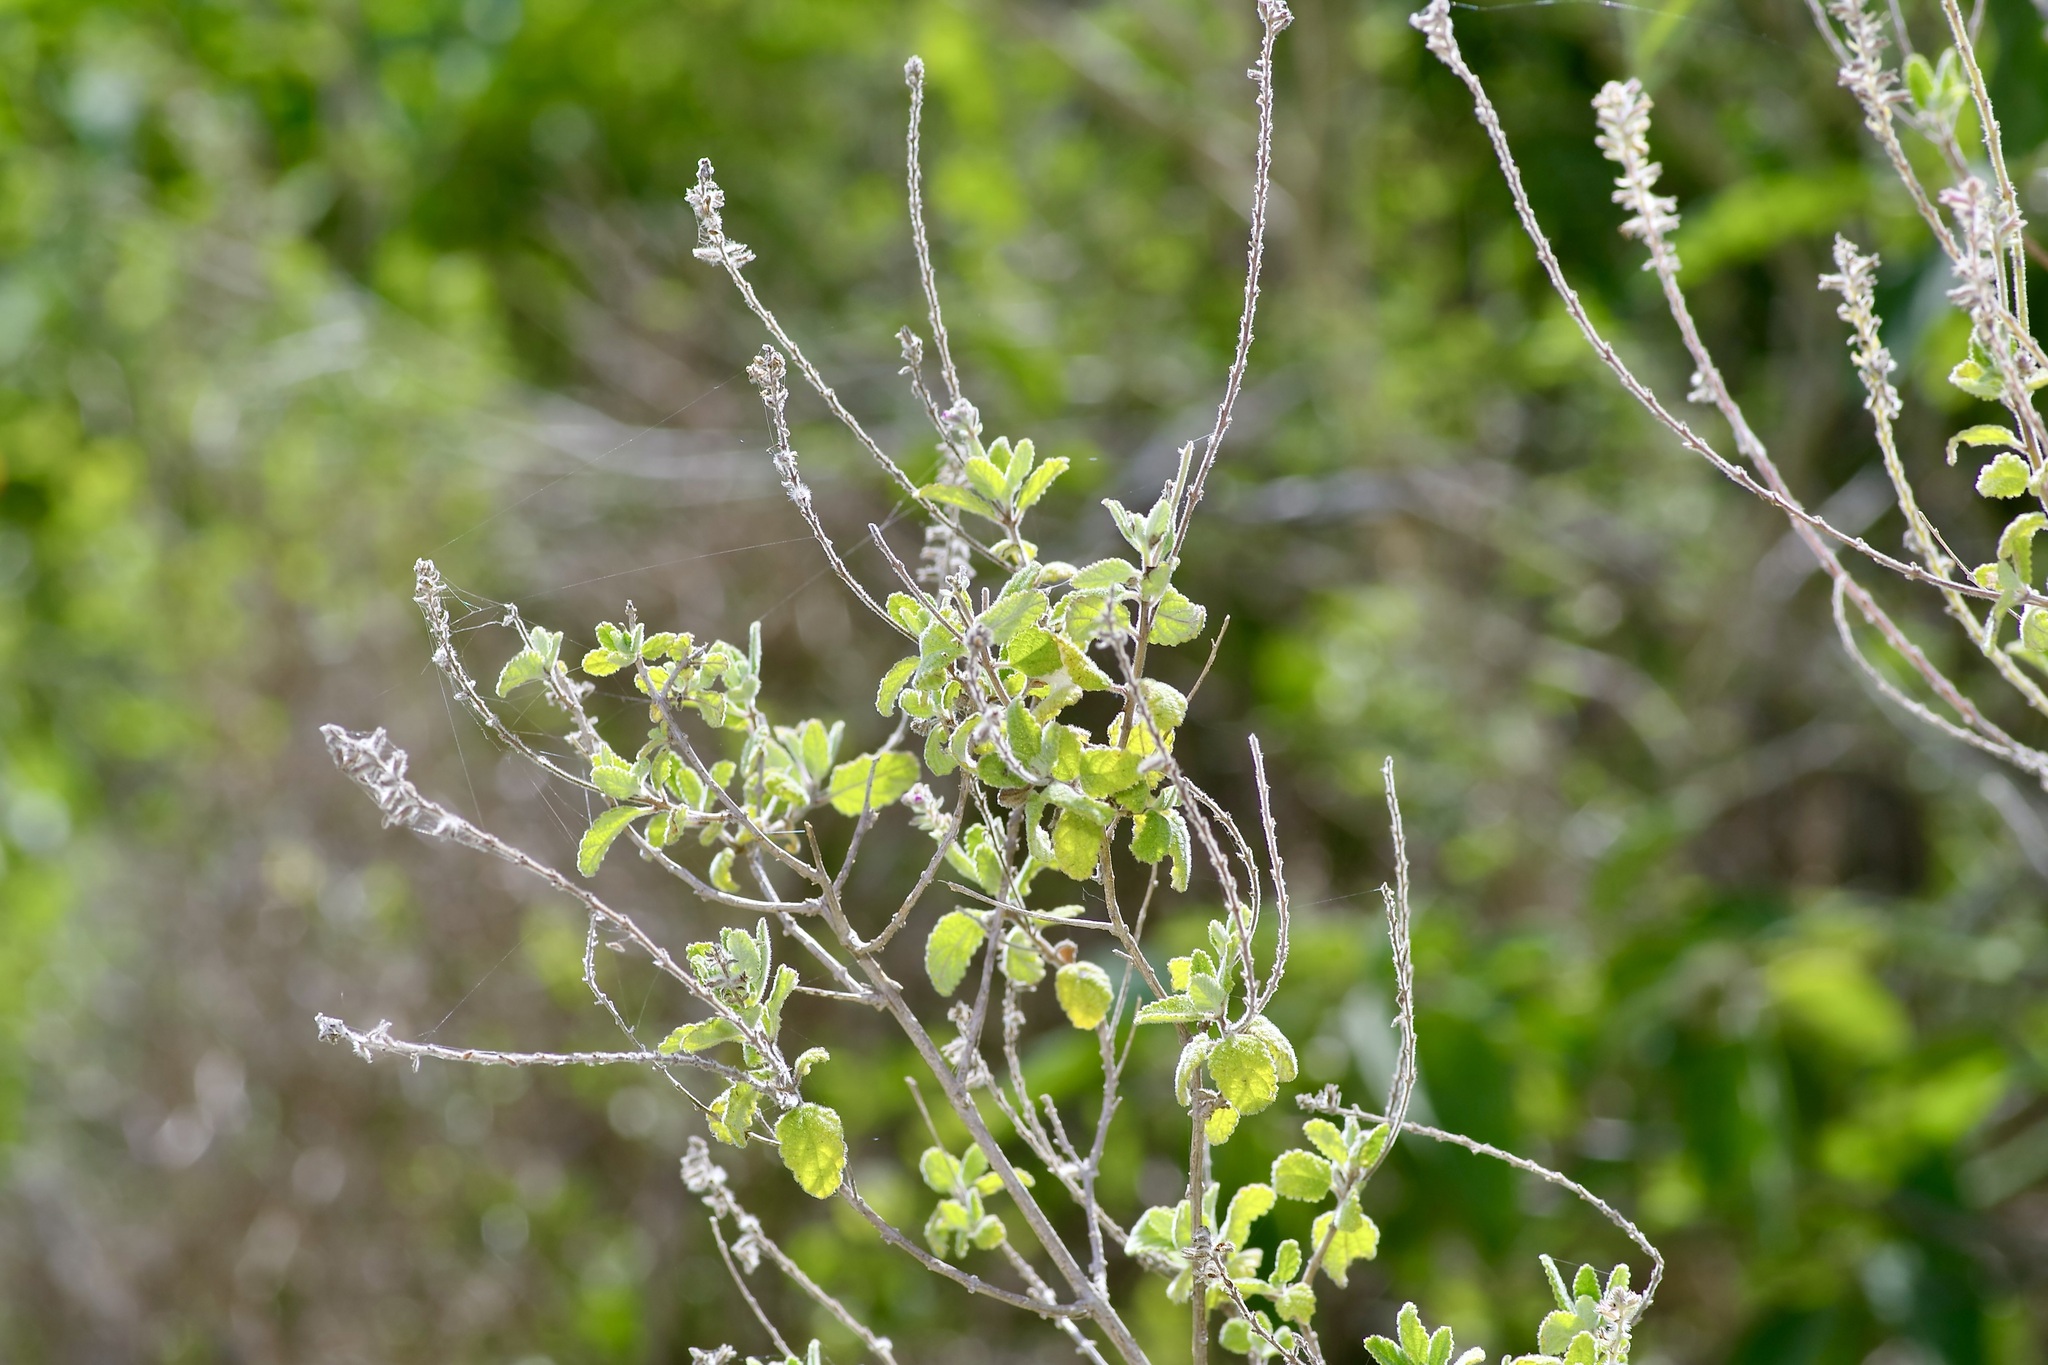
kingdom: Plantae
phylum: Tracheophyta
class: Magnoliopsida
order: Lamiales
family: Verbenaceae
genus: Aloysia
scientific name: Aloysia macrostachya
